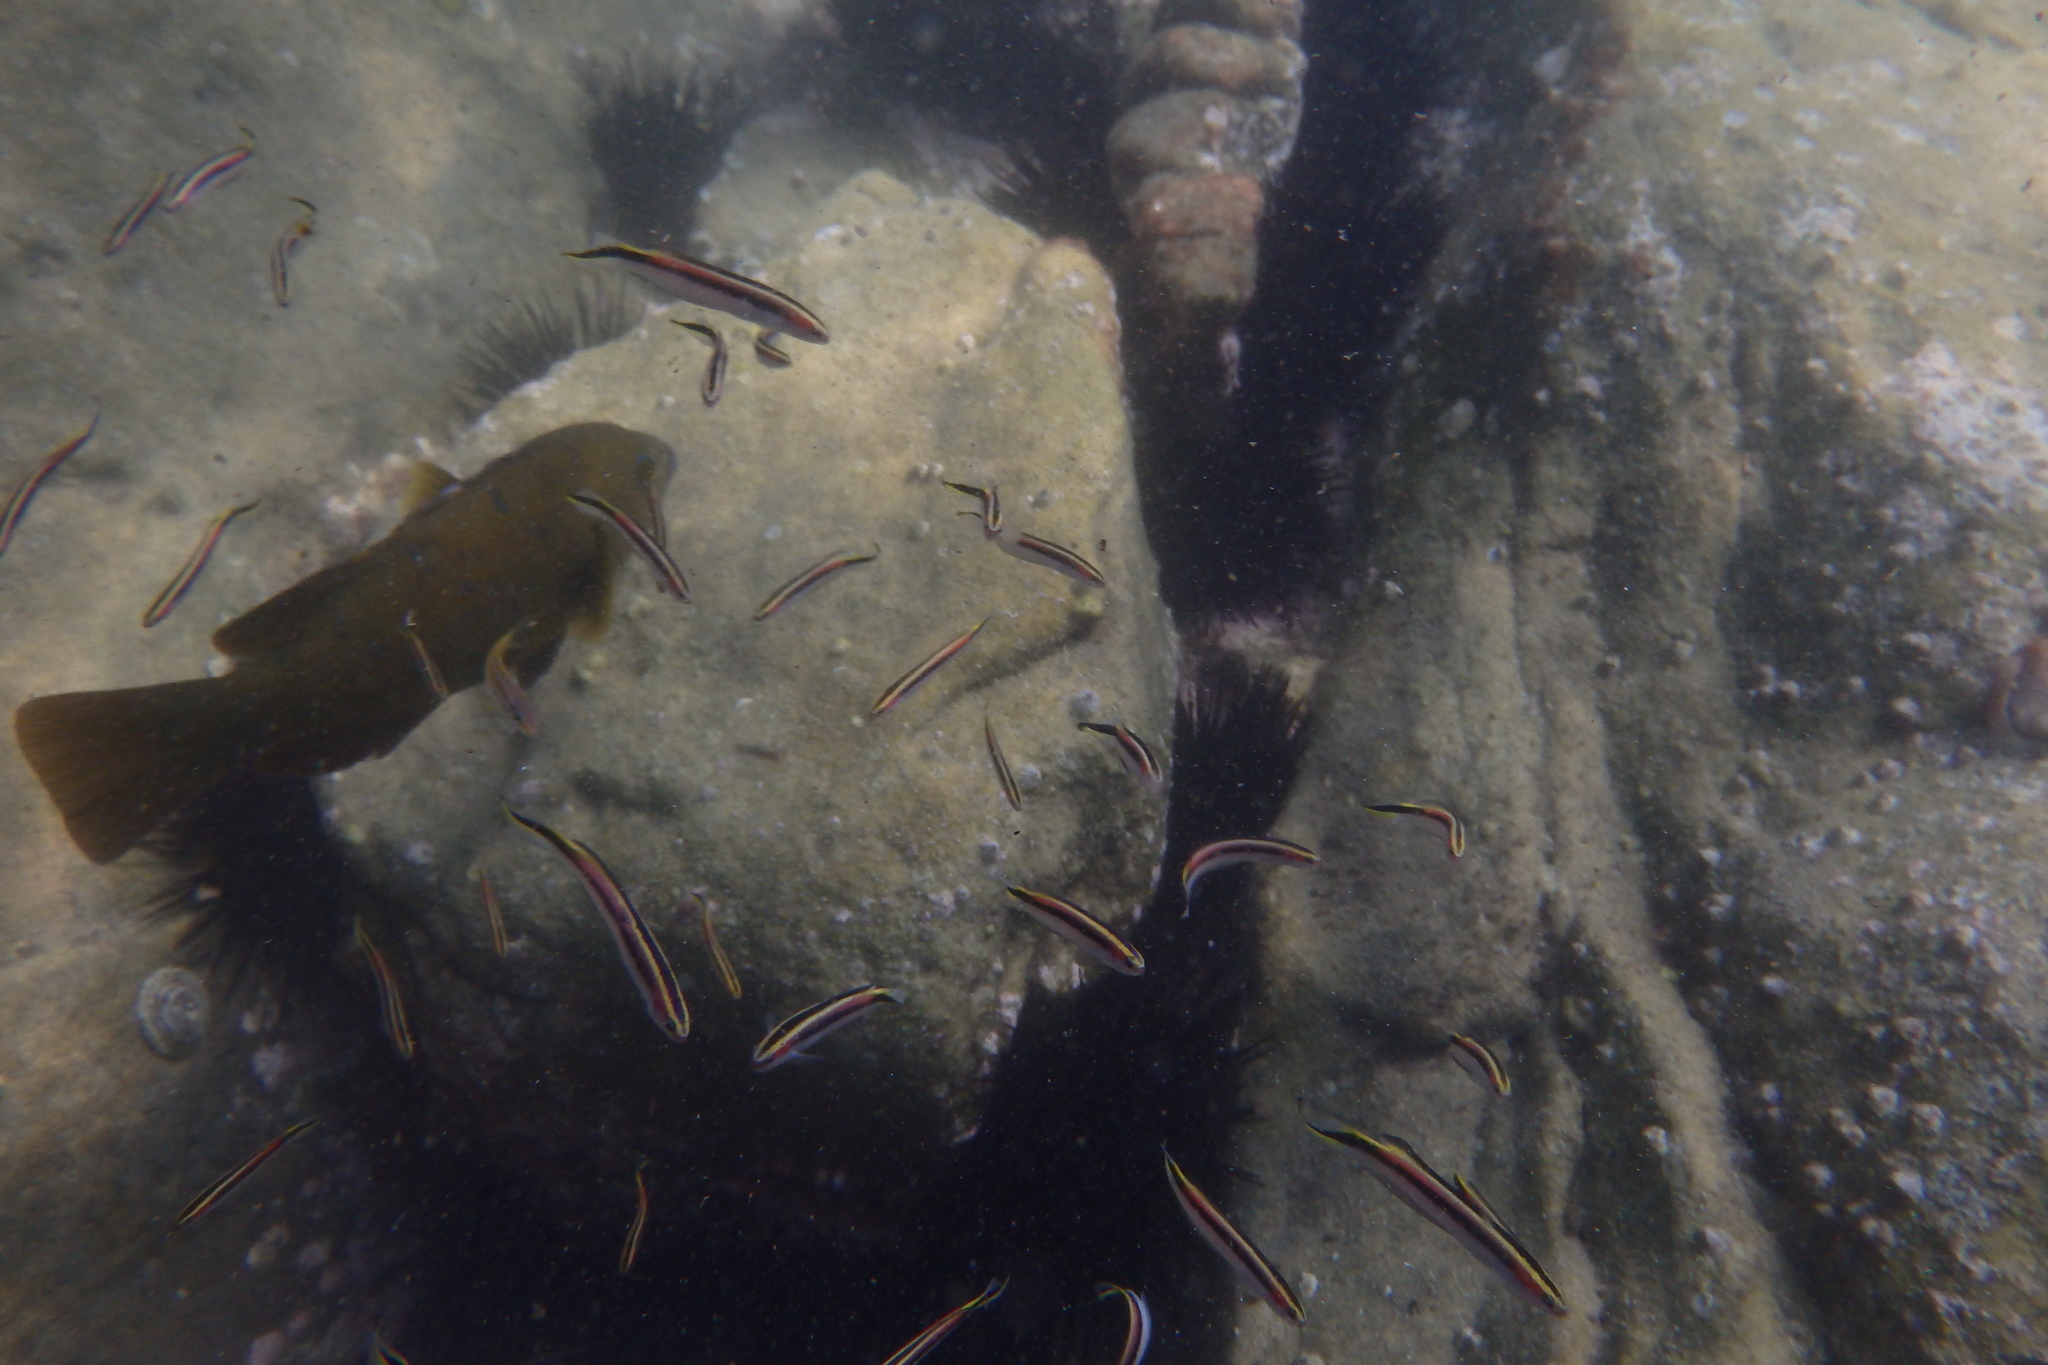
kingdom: Animalia
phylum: Chordata
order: Perciformes
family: Plesiopidae
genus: Trachinops
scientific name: Trachinops taeniatus
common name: Eastern hulafish
